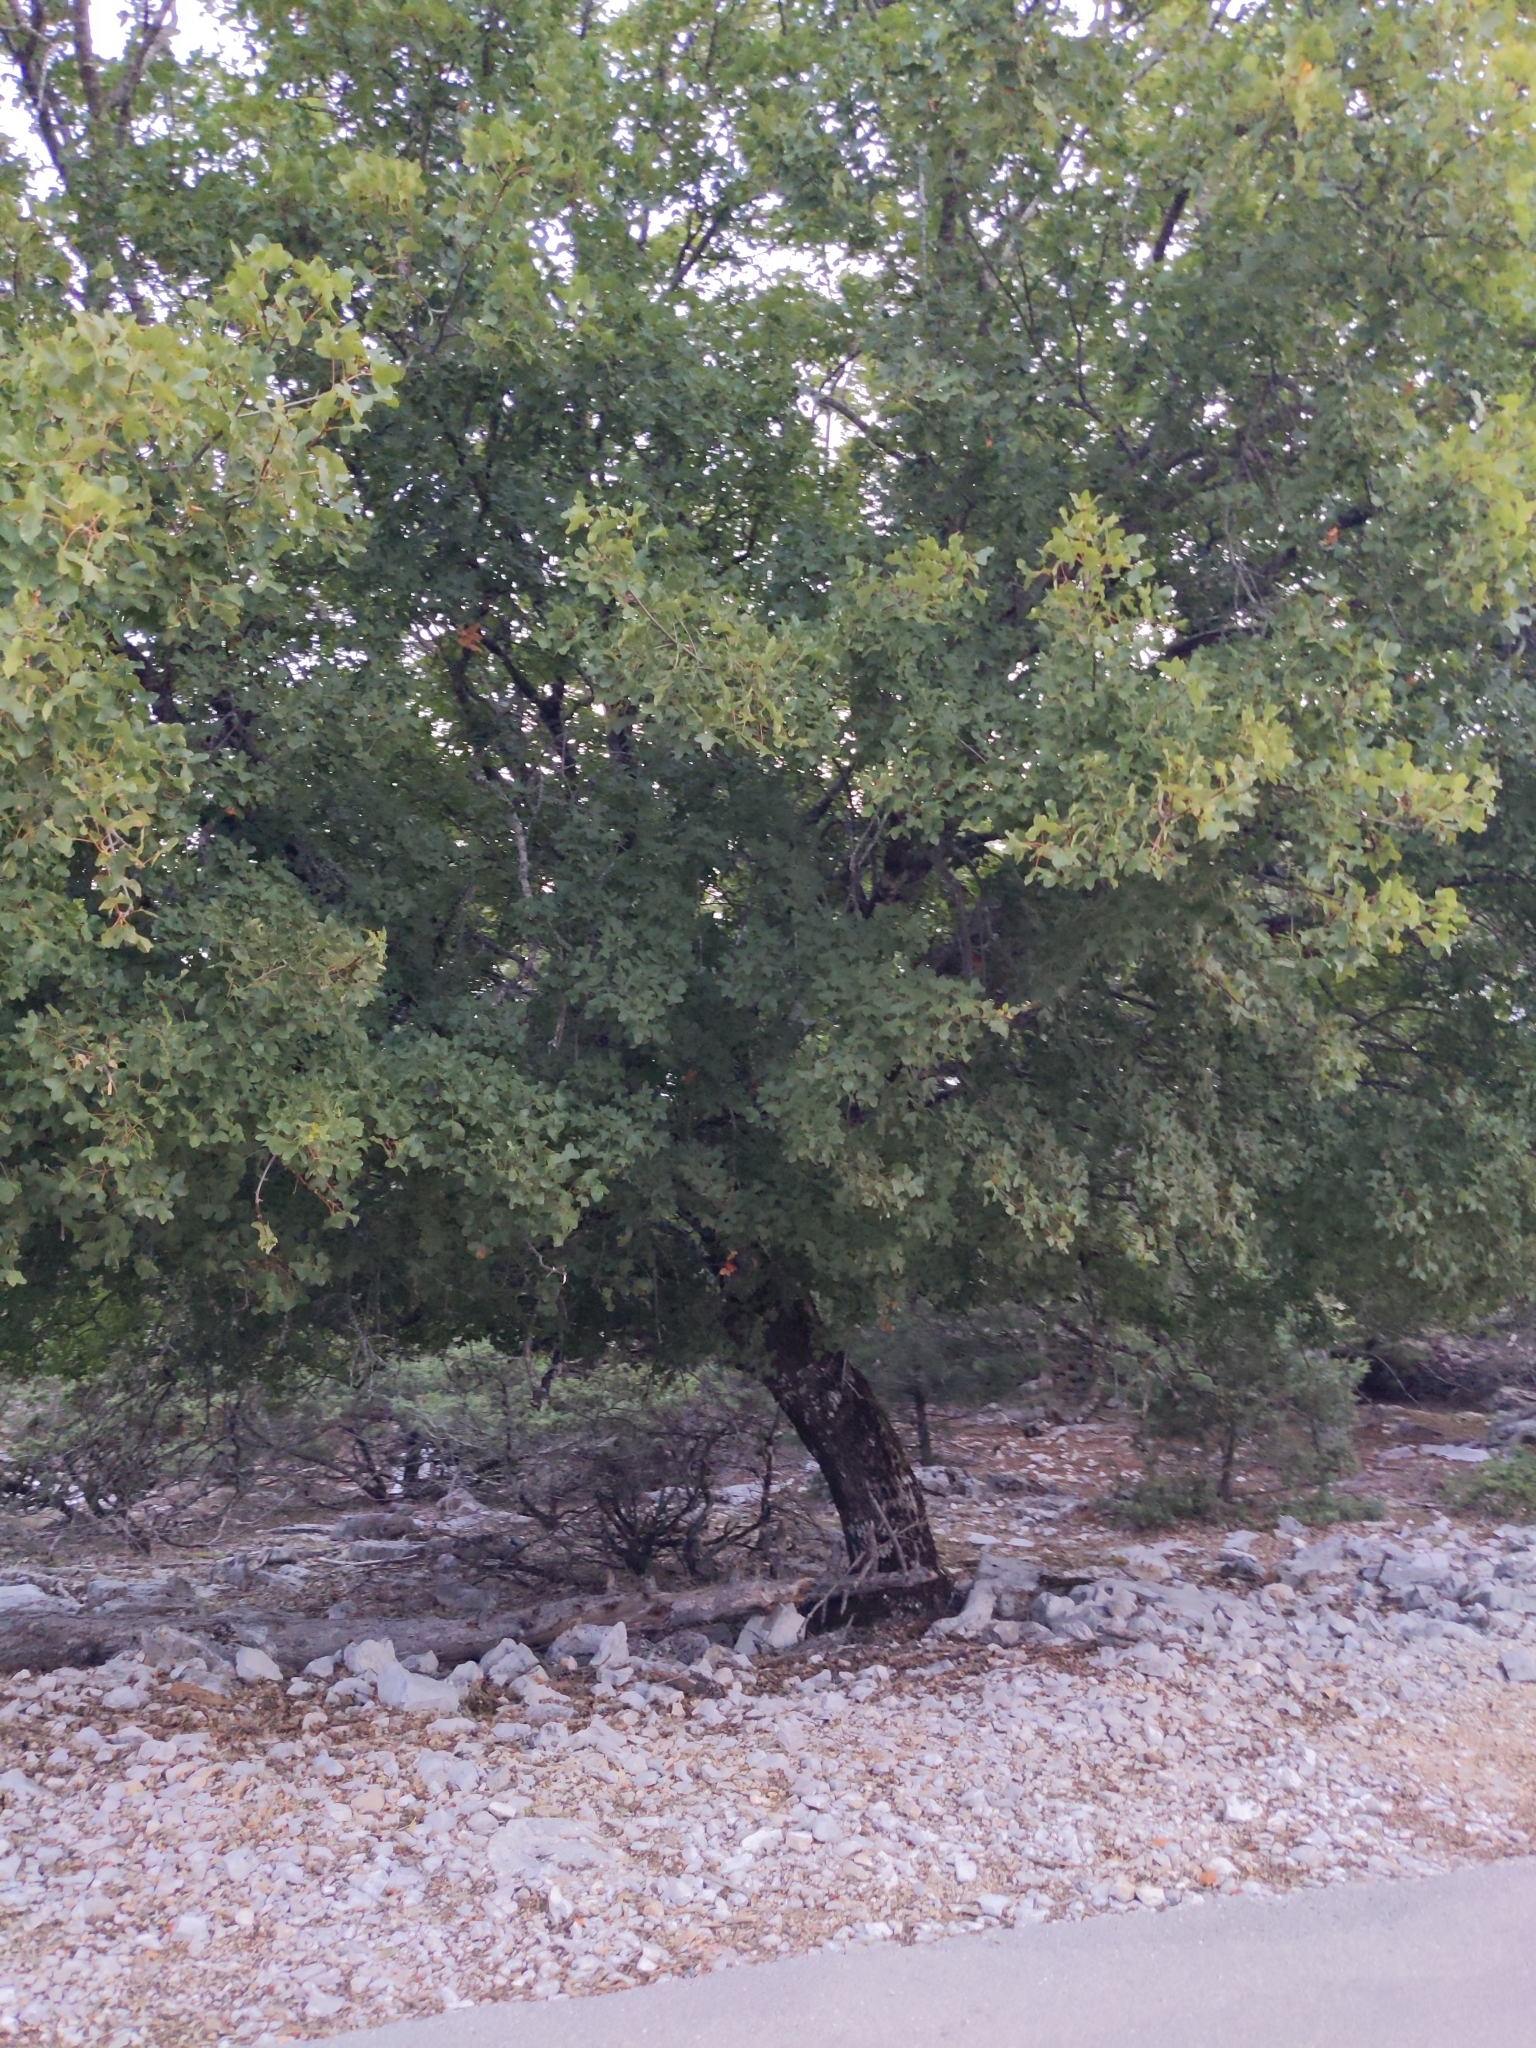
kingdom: Plantae
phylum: Tracheophyta
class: Magnoliopsida
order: Sapindales
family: Sapindaceae
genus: Acer
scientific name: Acer monspessulanum
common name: Montpellier maple
